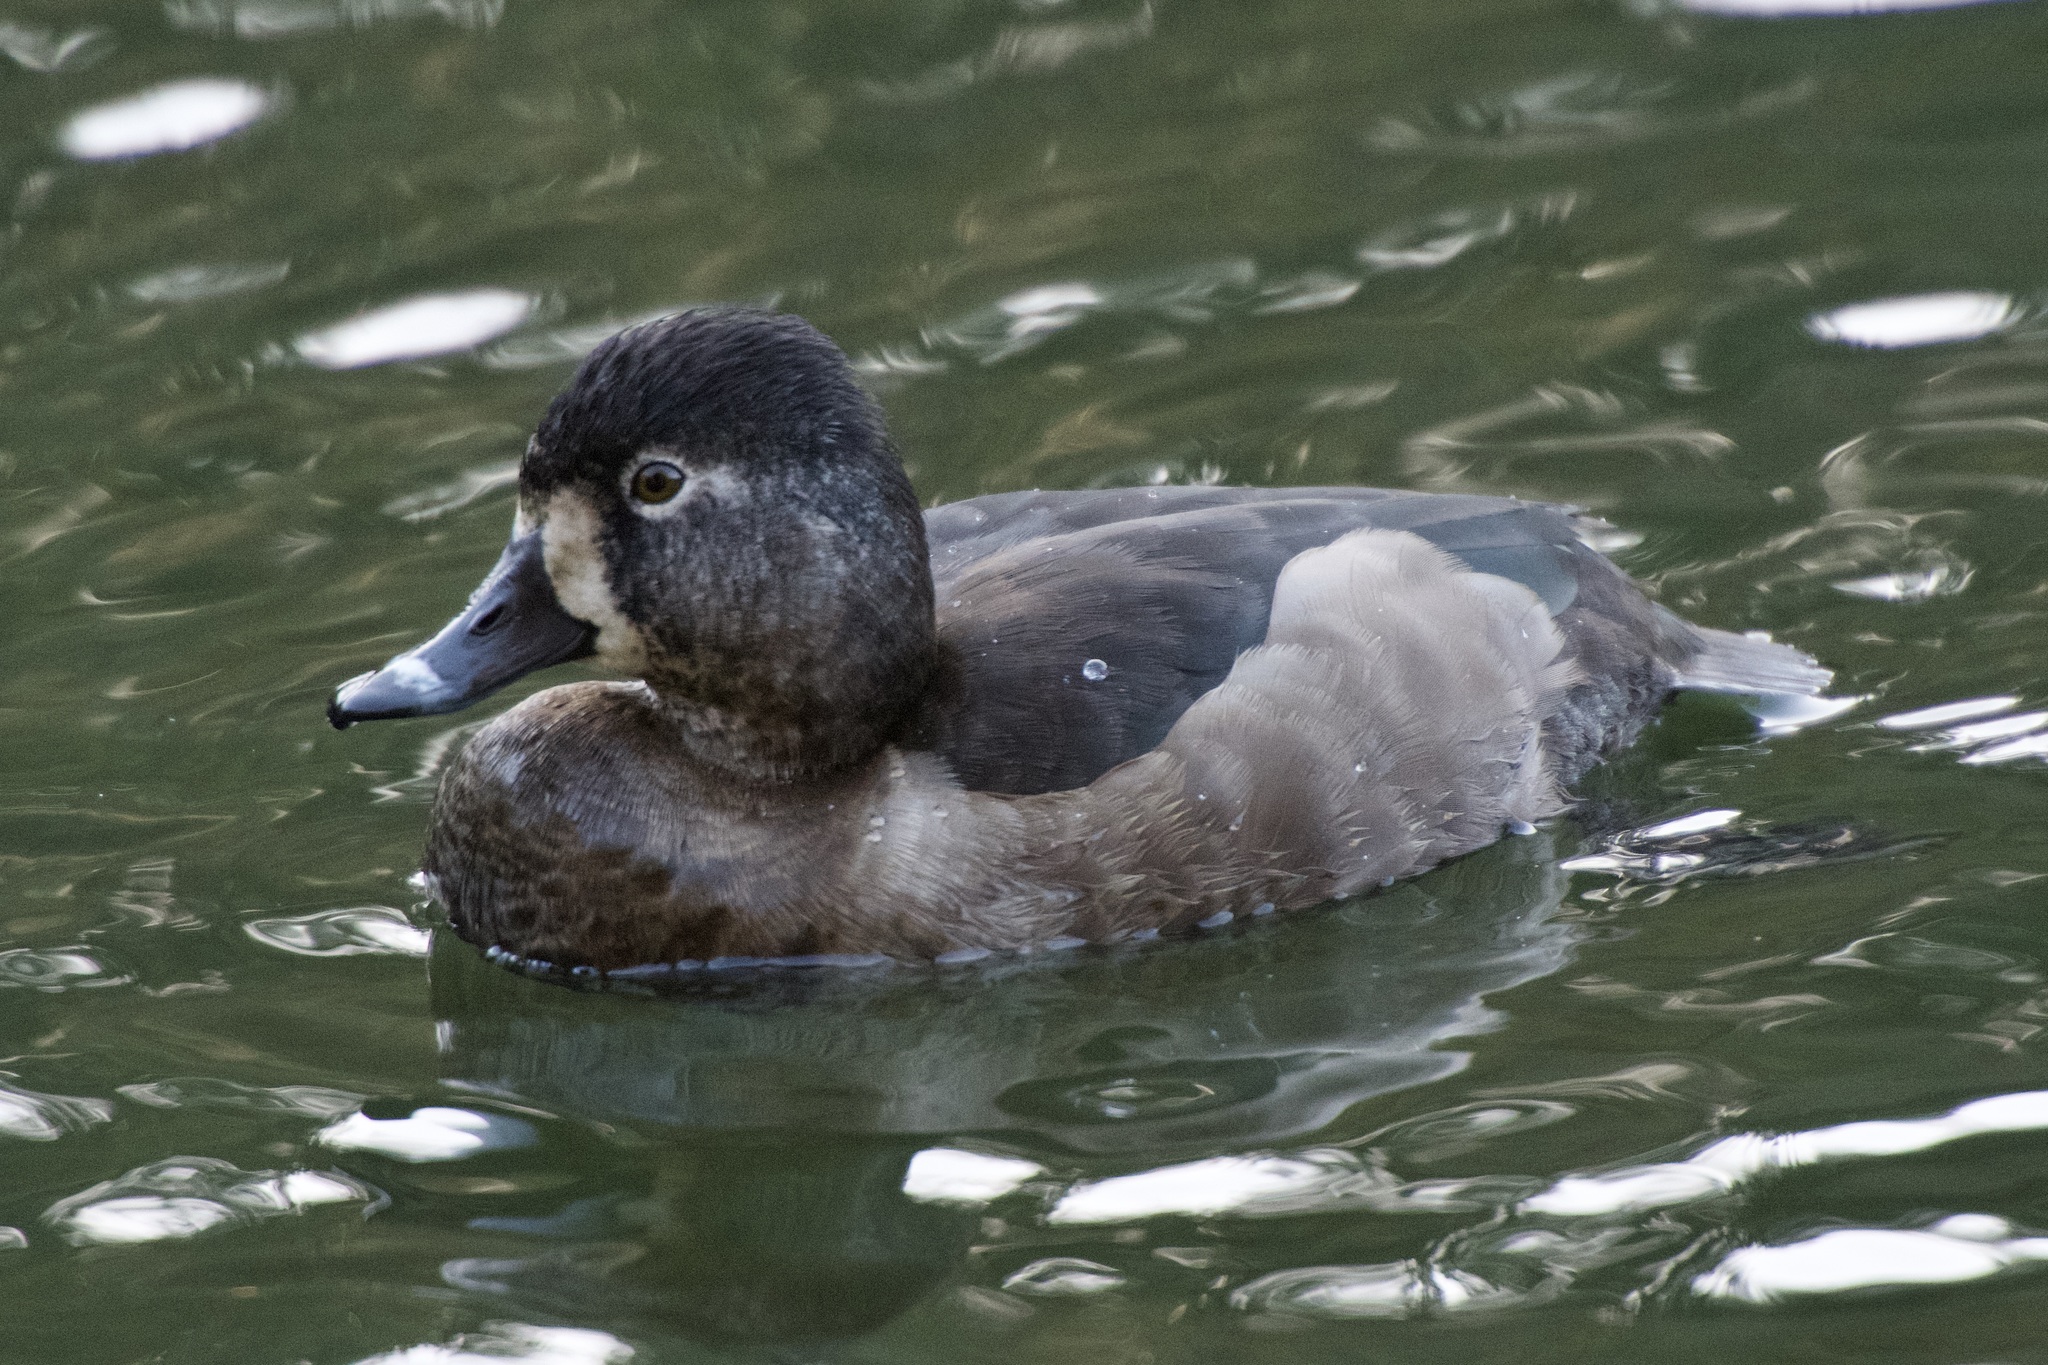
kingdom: Animalia
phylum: Chordata
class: Aves
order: Anseriformes
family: Anatidae
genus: Aythya
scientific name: Aythya collaris
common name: Ring-necked duck
